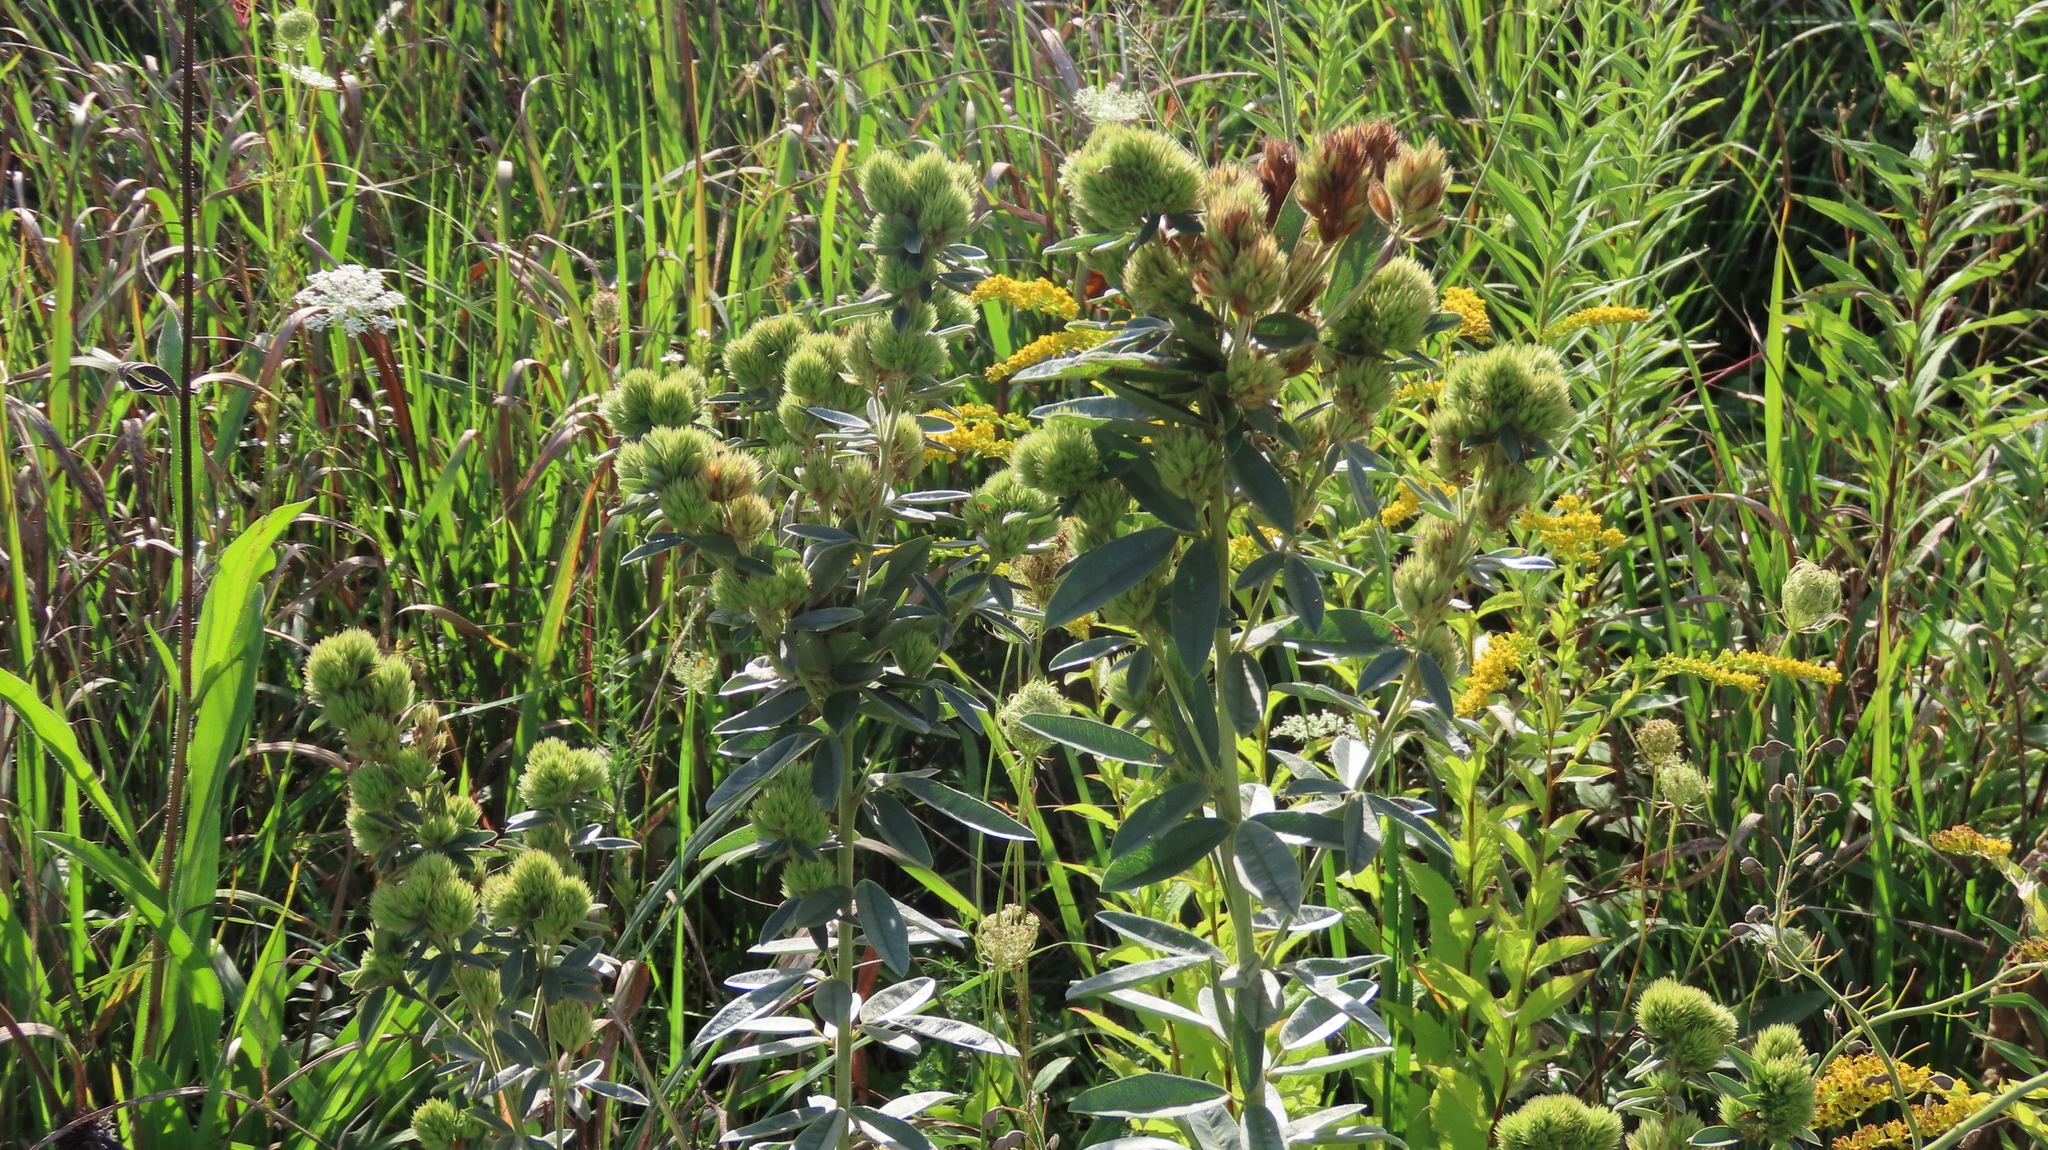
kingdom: Plantae
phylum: Tracheophyta
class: Magnoliopsida
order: Fabales
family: Fabaceae
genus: Lespedeza
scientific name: Lespedeza capitata
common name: Dusty clover
